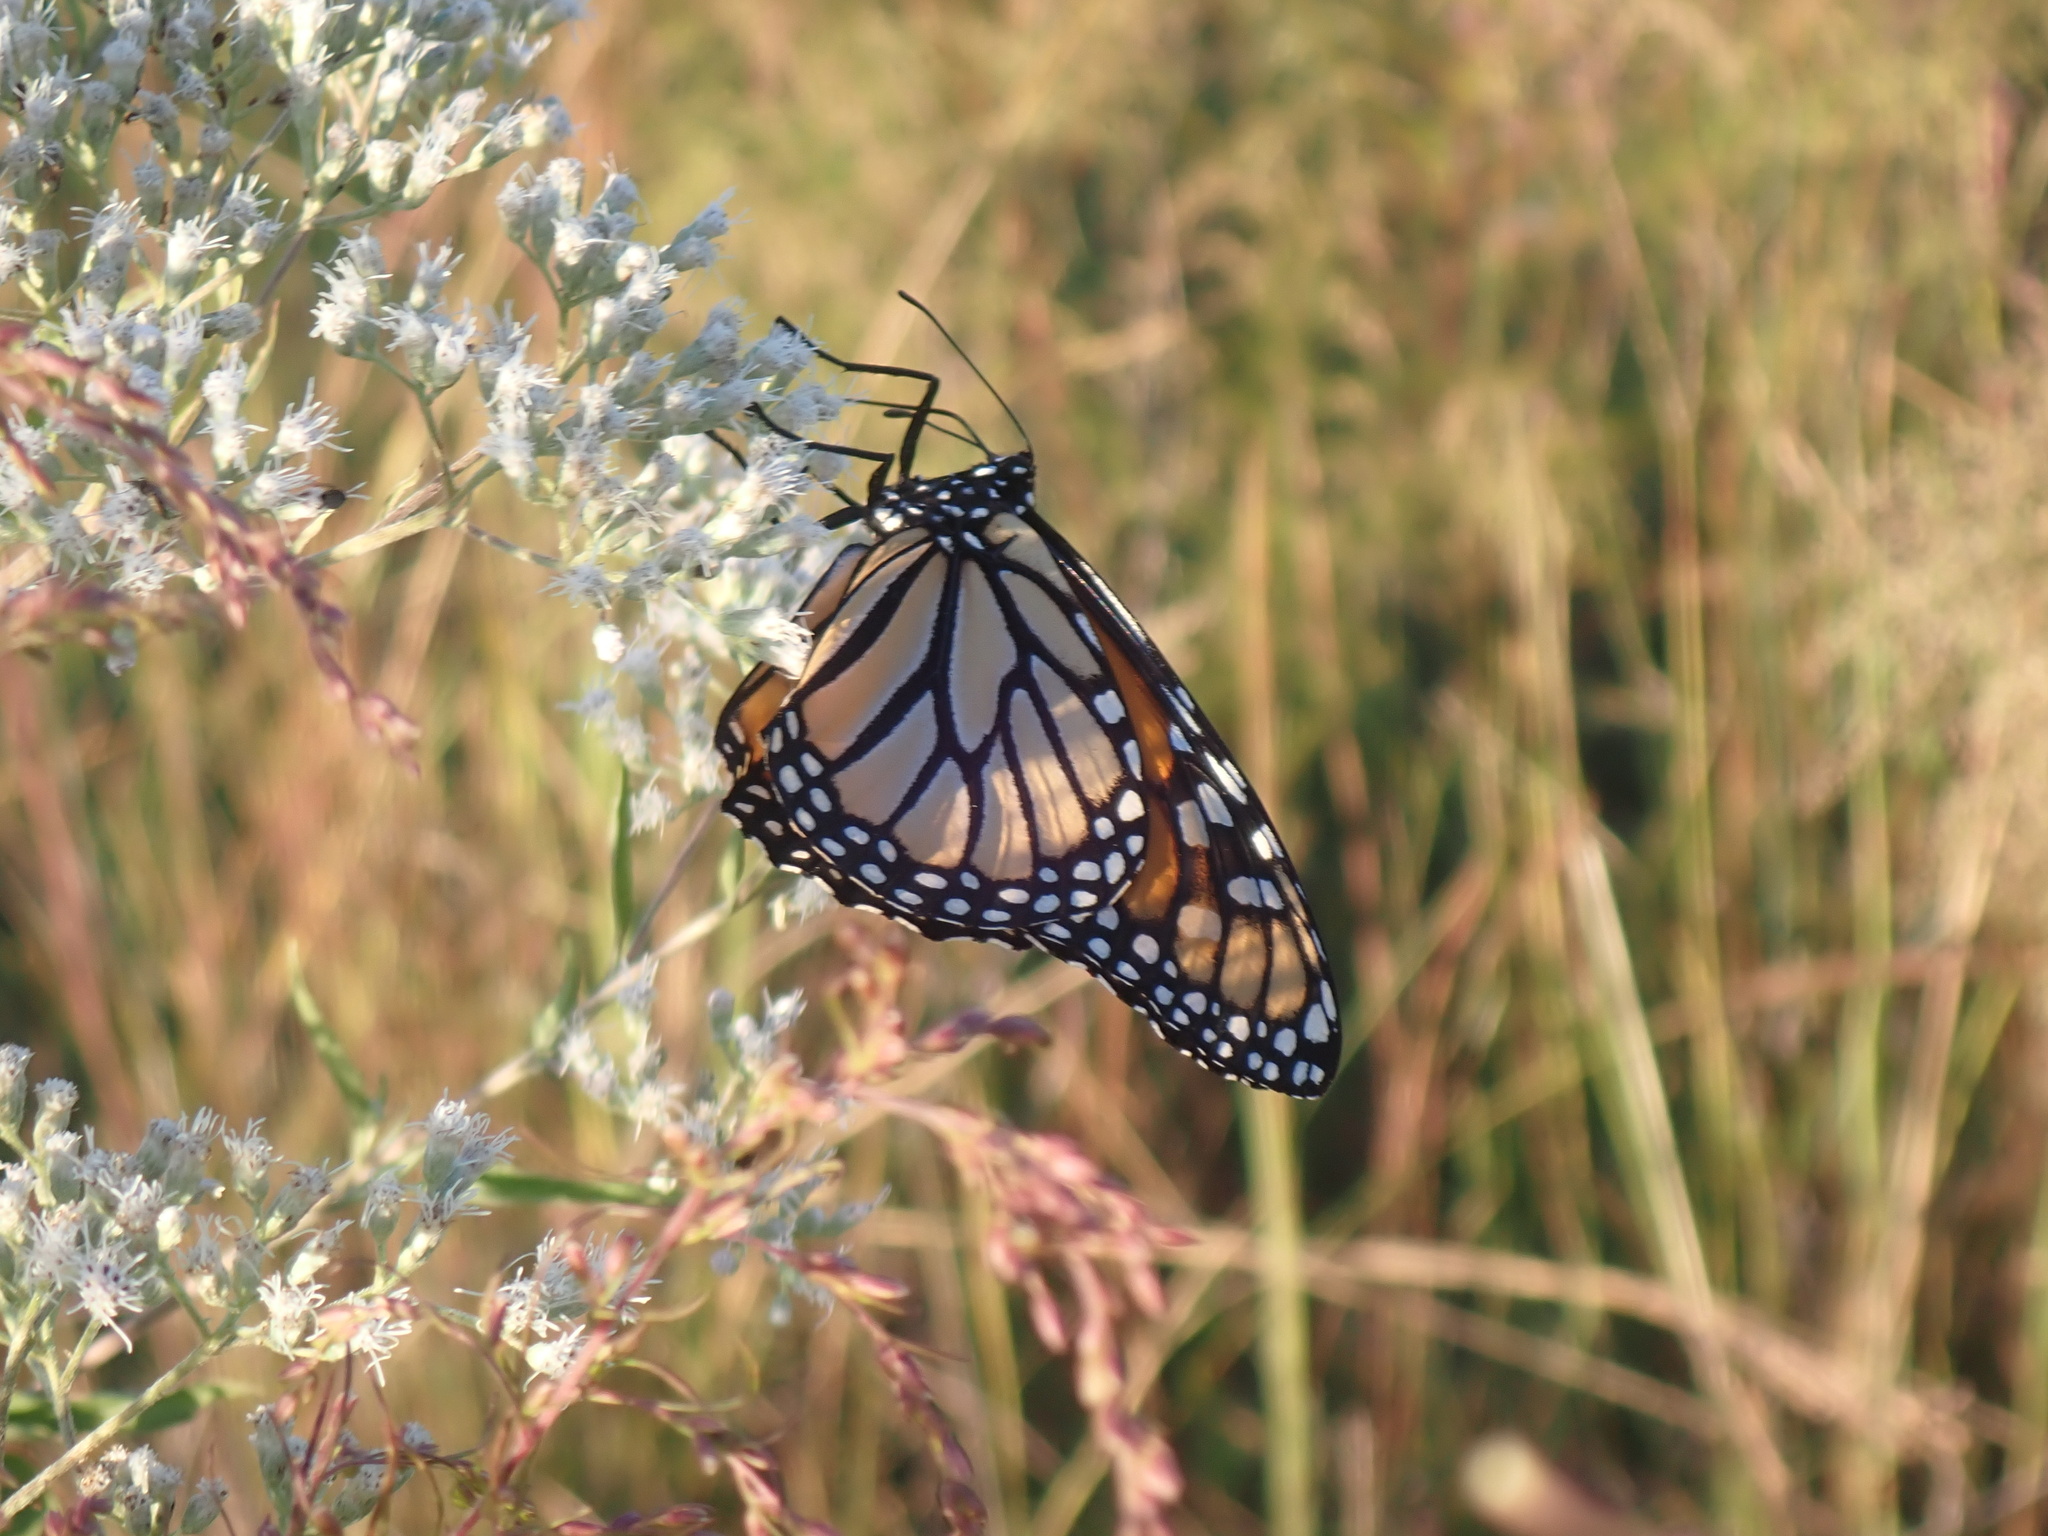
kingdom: Animalia
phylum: Arthropoda
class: Insecta
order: Lepidoptera
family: Nymphalidae
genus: Danaus
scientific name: Danaus plexippus
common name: Monarch
